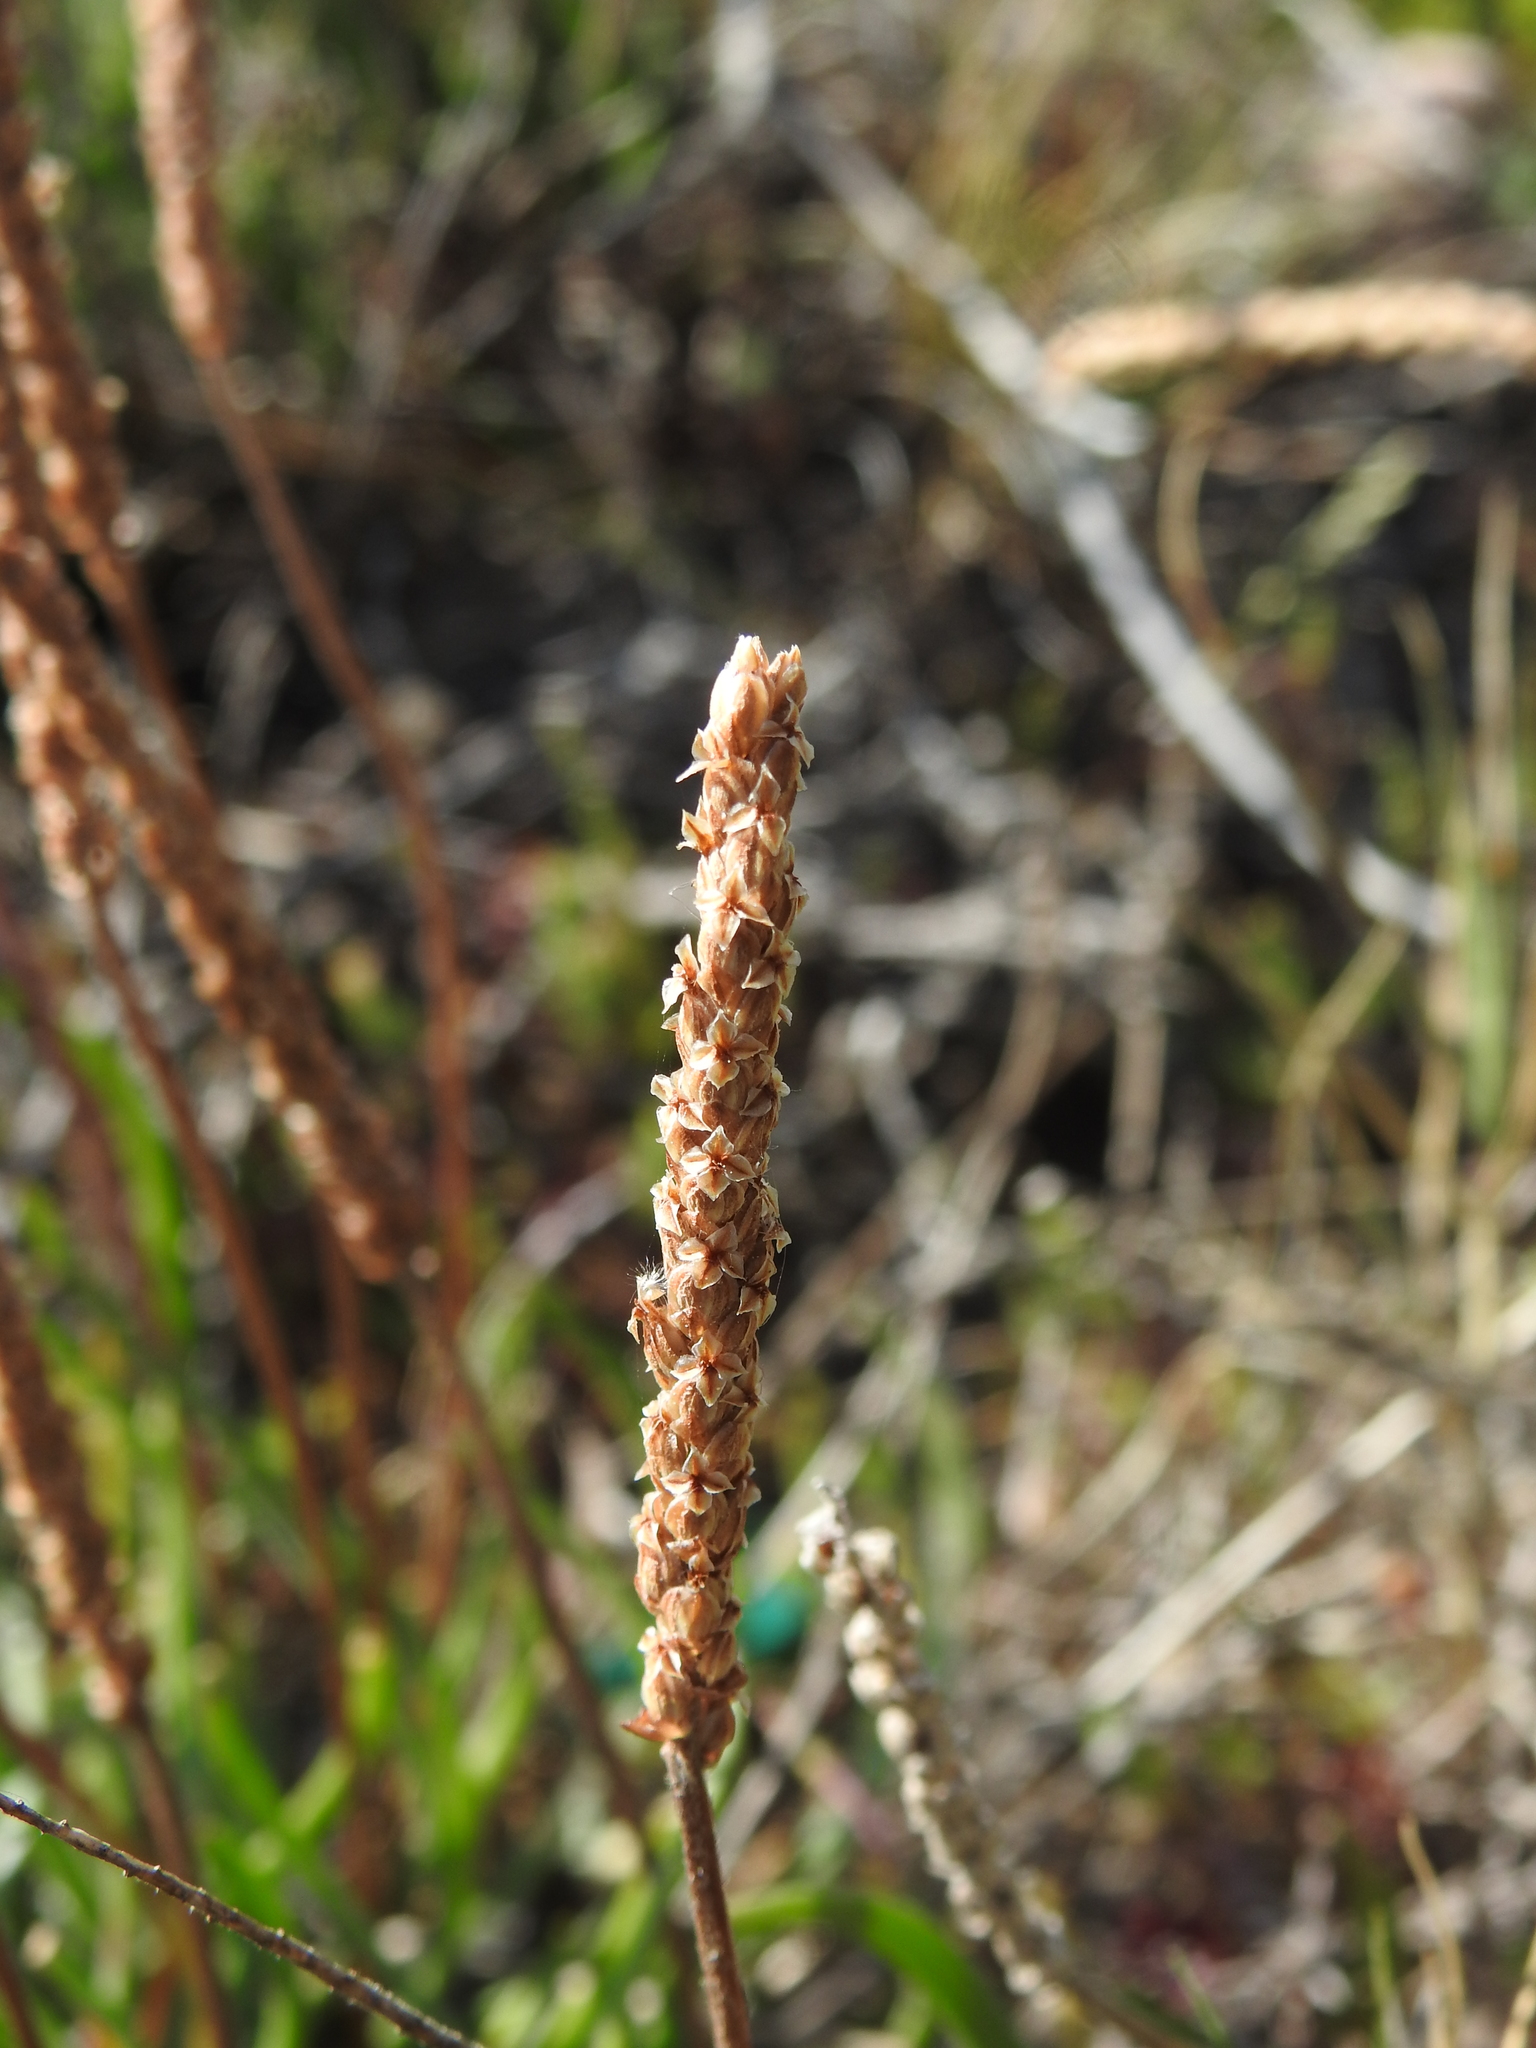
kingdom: Plantae
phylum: Tracheophyta
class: Magnoliopsida
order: Lamiales
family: Plantaginaceae
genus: Plantago
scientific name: Plantago crassifolia
